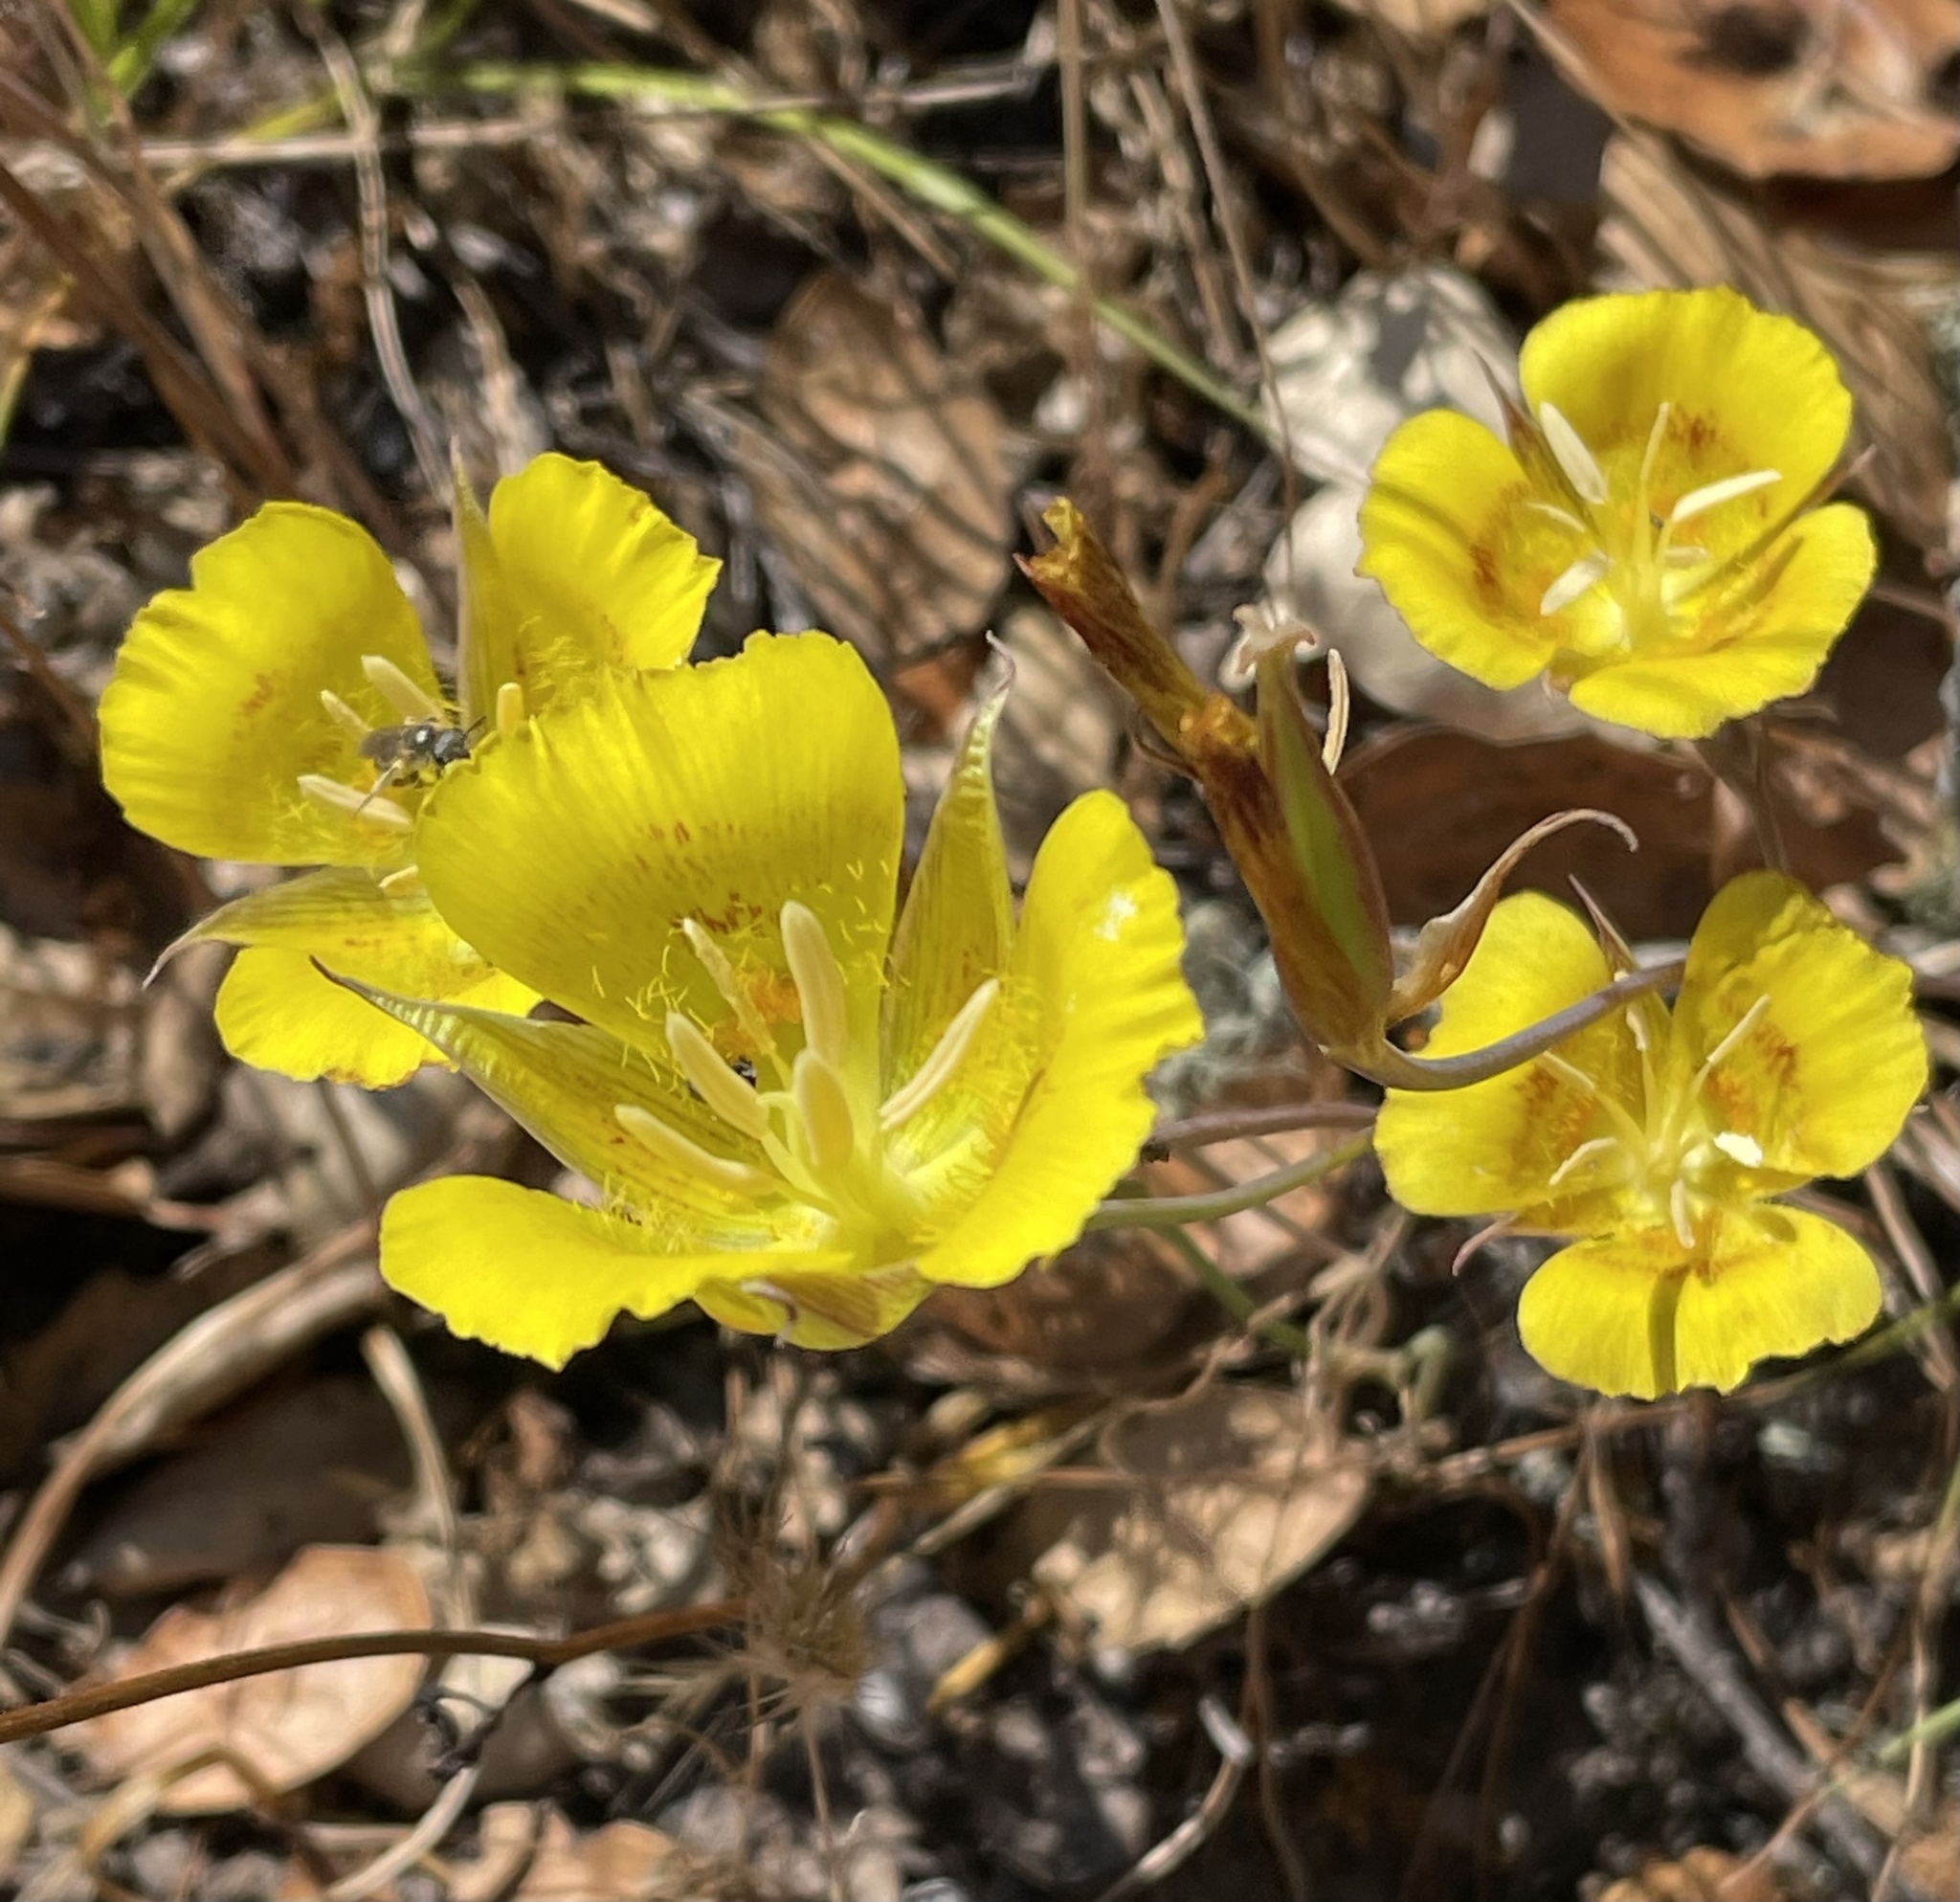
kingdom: Plantae
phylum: Tracheophyta
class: Liliopsida
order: Liliales
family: Liliaceae
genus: Calochortus
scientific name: Calochortus luteus
